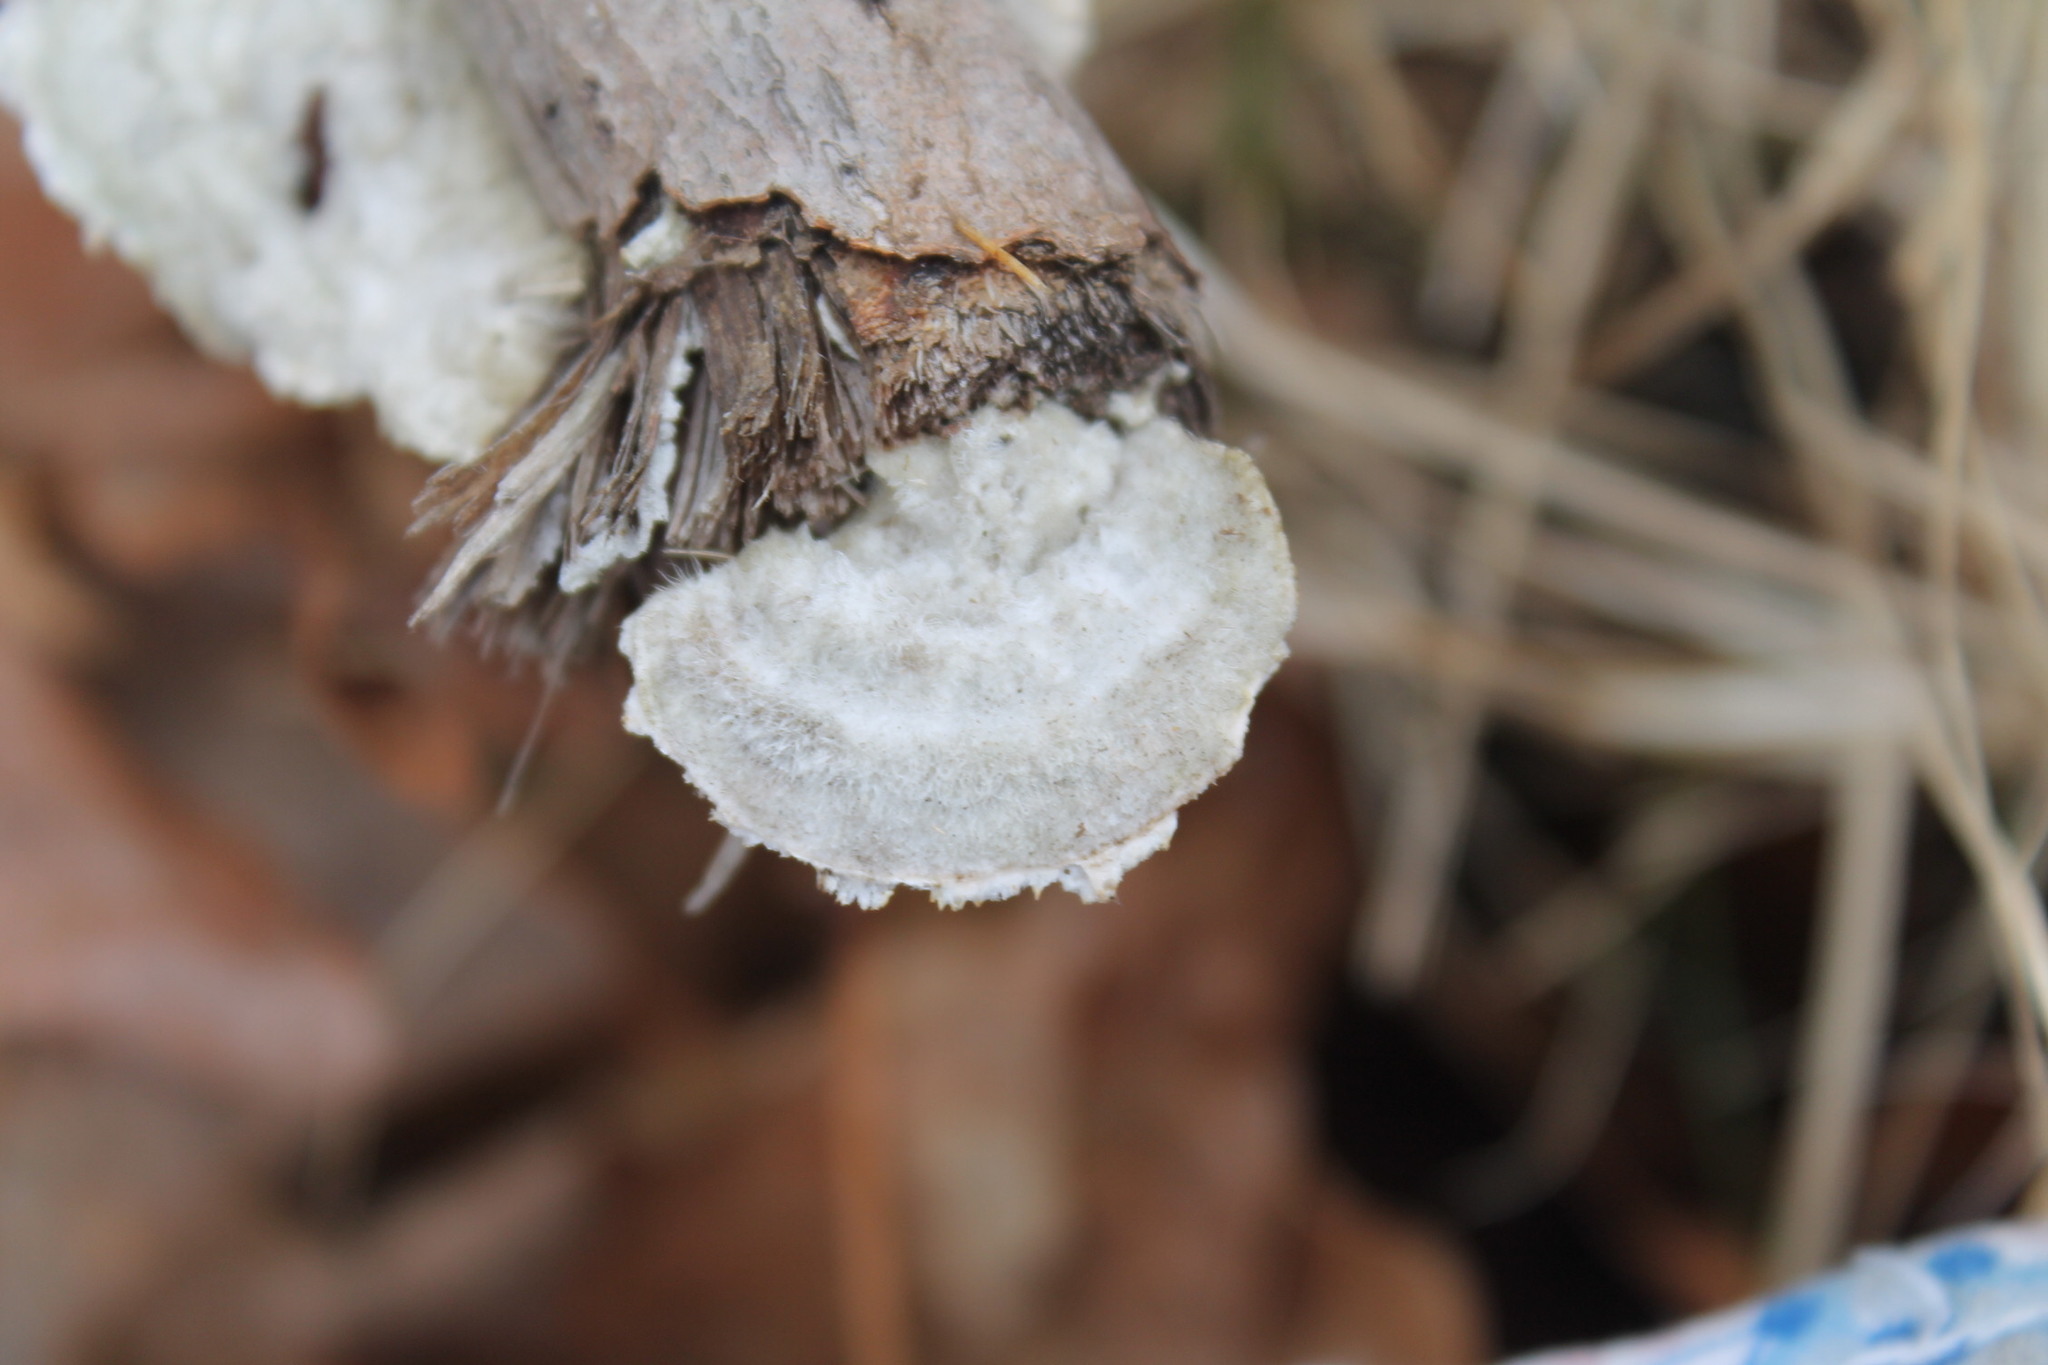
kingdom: Fungi
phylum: Basidiomycota
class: Agaricomycetes
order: Polyporales
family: Polyporaceae
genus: Trametes
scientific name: Trametes hirsuta
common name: Hairy bracket
